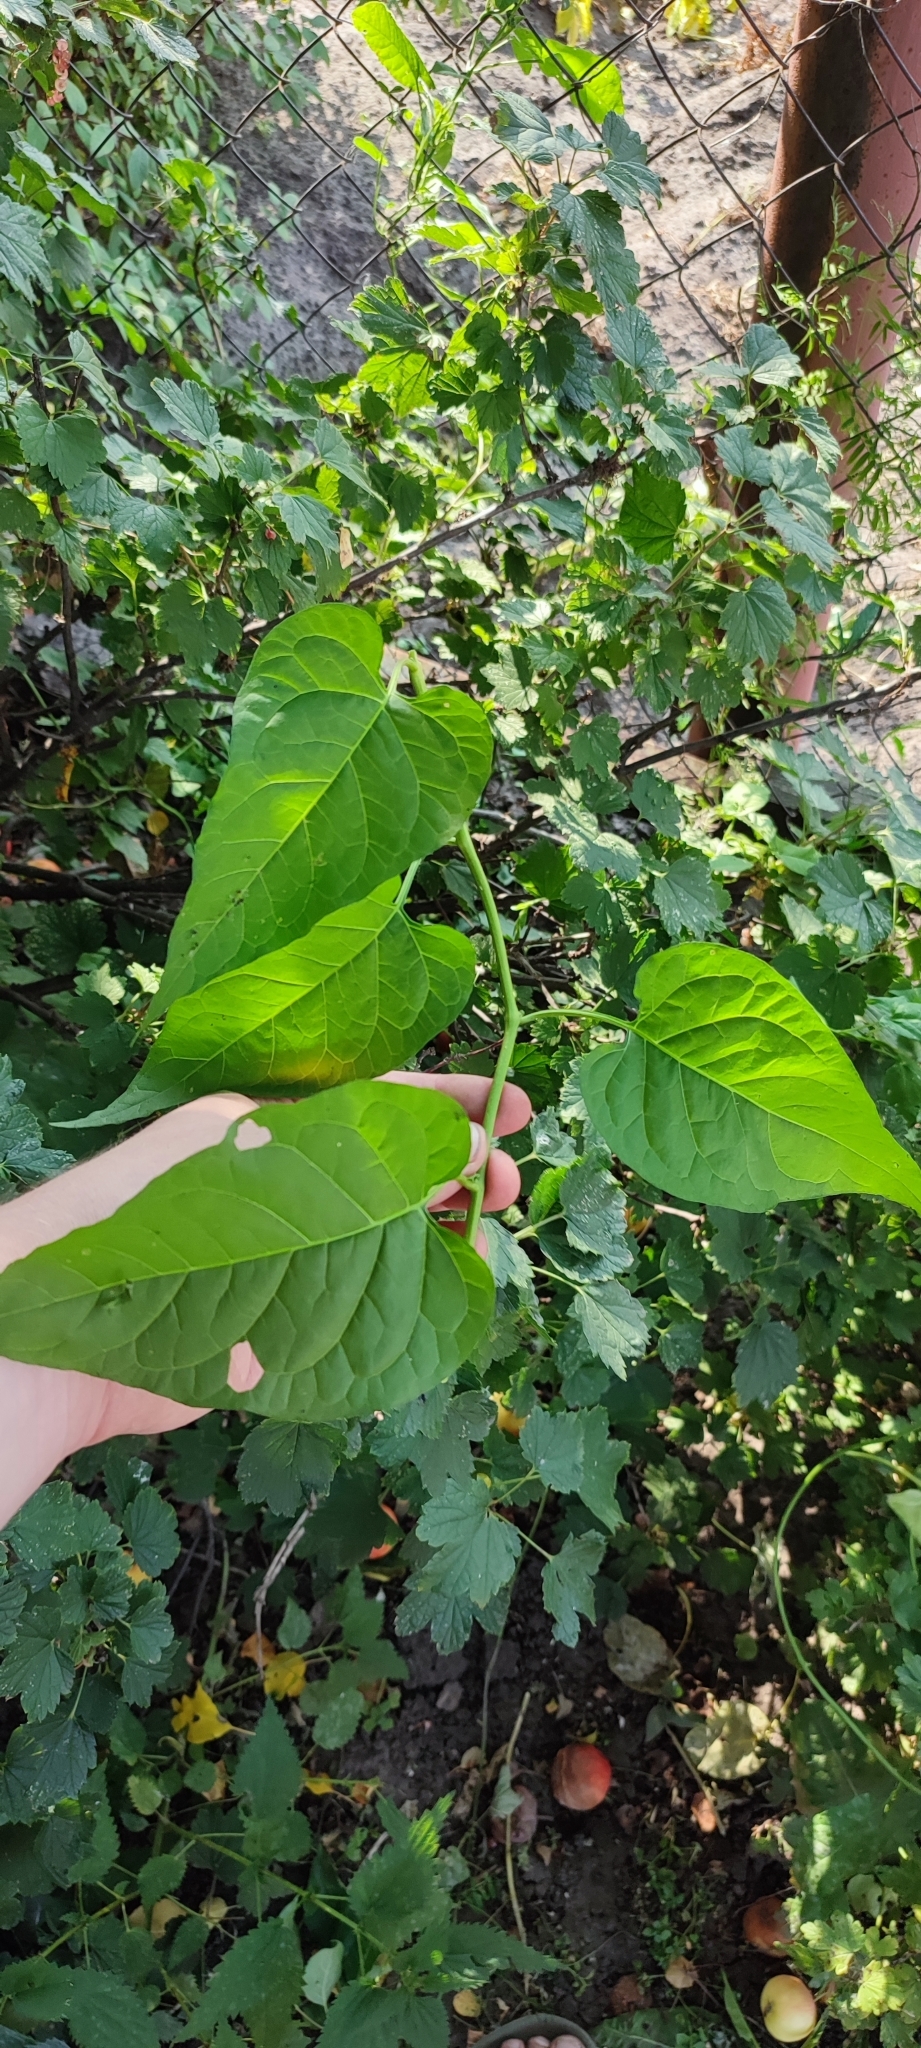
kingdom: Plantae
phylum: Tracheophyta
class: Magnoliopsida
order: Solanales
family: Solanaceae
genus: Solanum
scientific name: Solanum dulcamara
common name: Climbing nightshade
